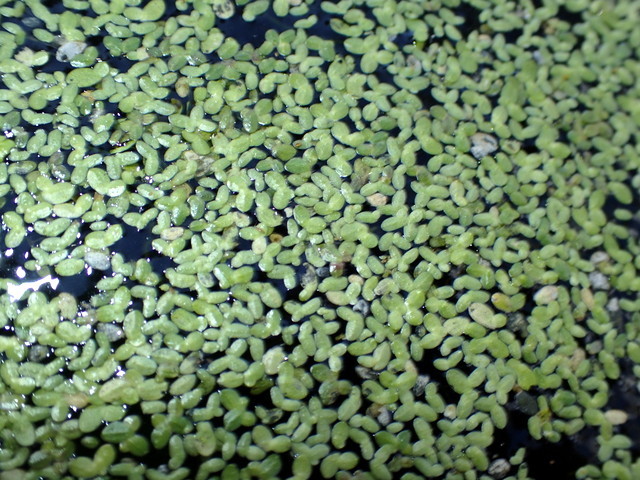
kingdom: Plantae
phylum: Tracheophyta
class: Liliopsida
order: Alismatales
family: Araceae
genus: Lemna
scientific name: Lemna minor
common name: Common duckweed
